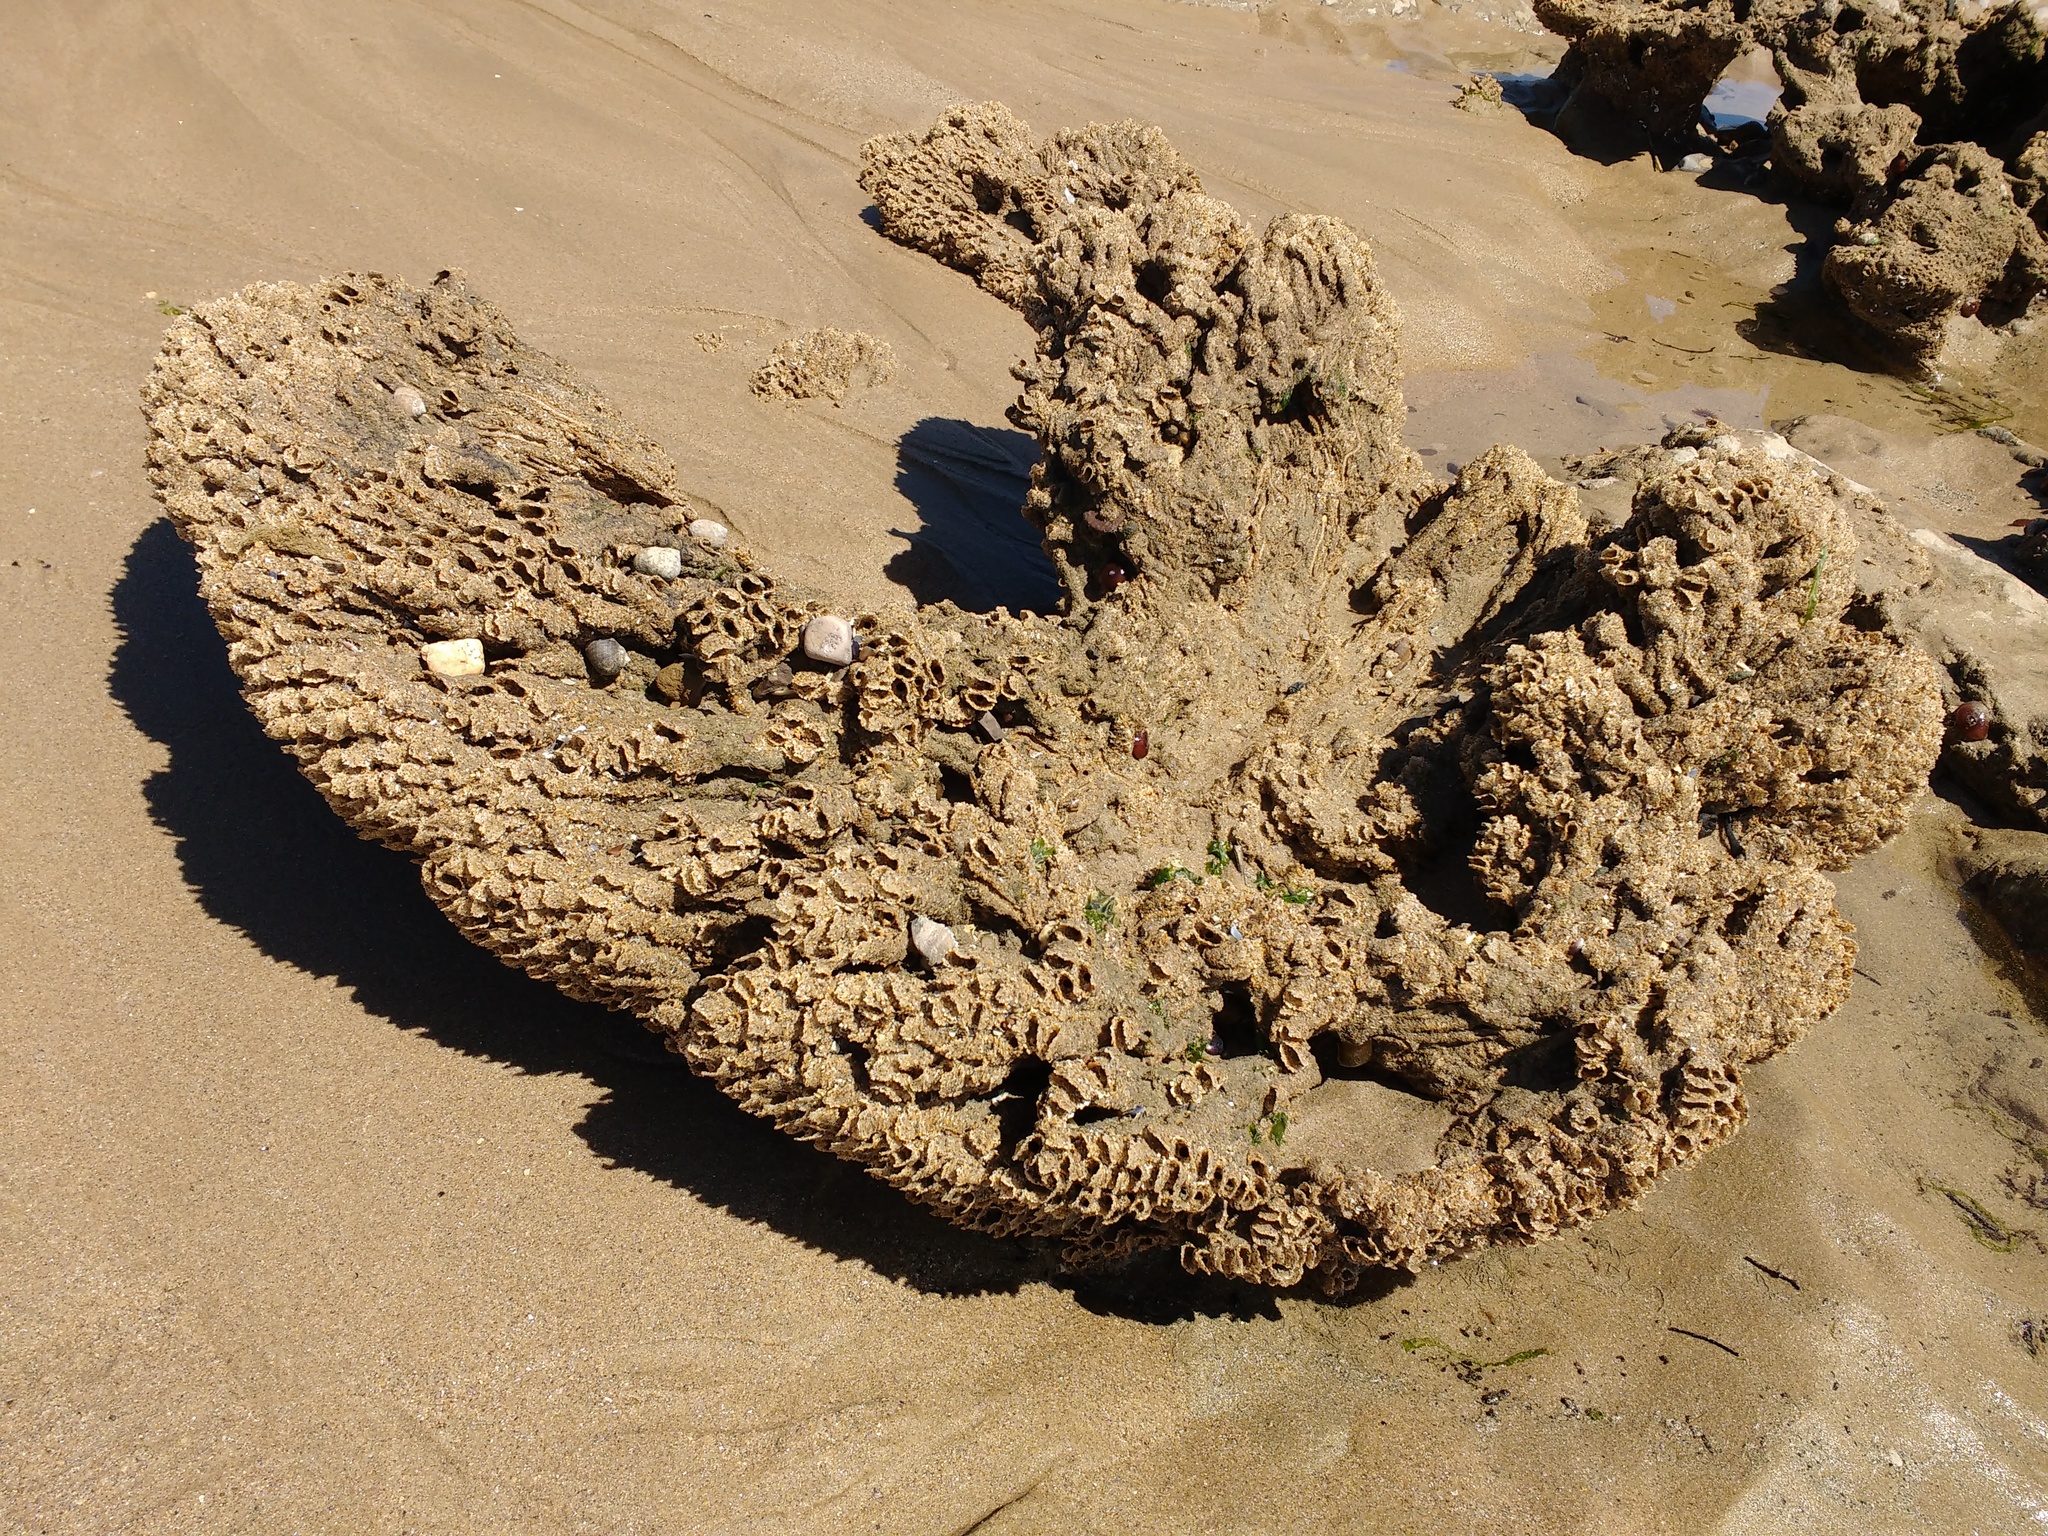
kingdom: Animalia
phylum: Annelida
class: Polychaeta
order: Sabellida
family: Sabellariidae
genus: Sabellaria
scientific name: Sabellaria alveolata
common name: Honeycomb worm
